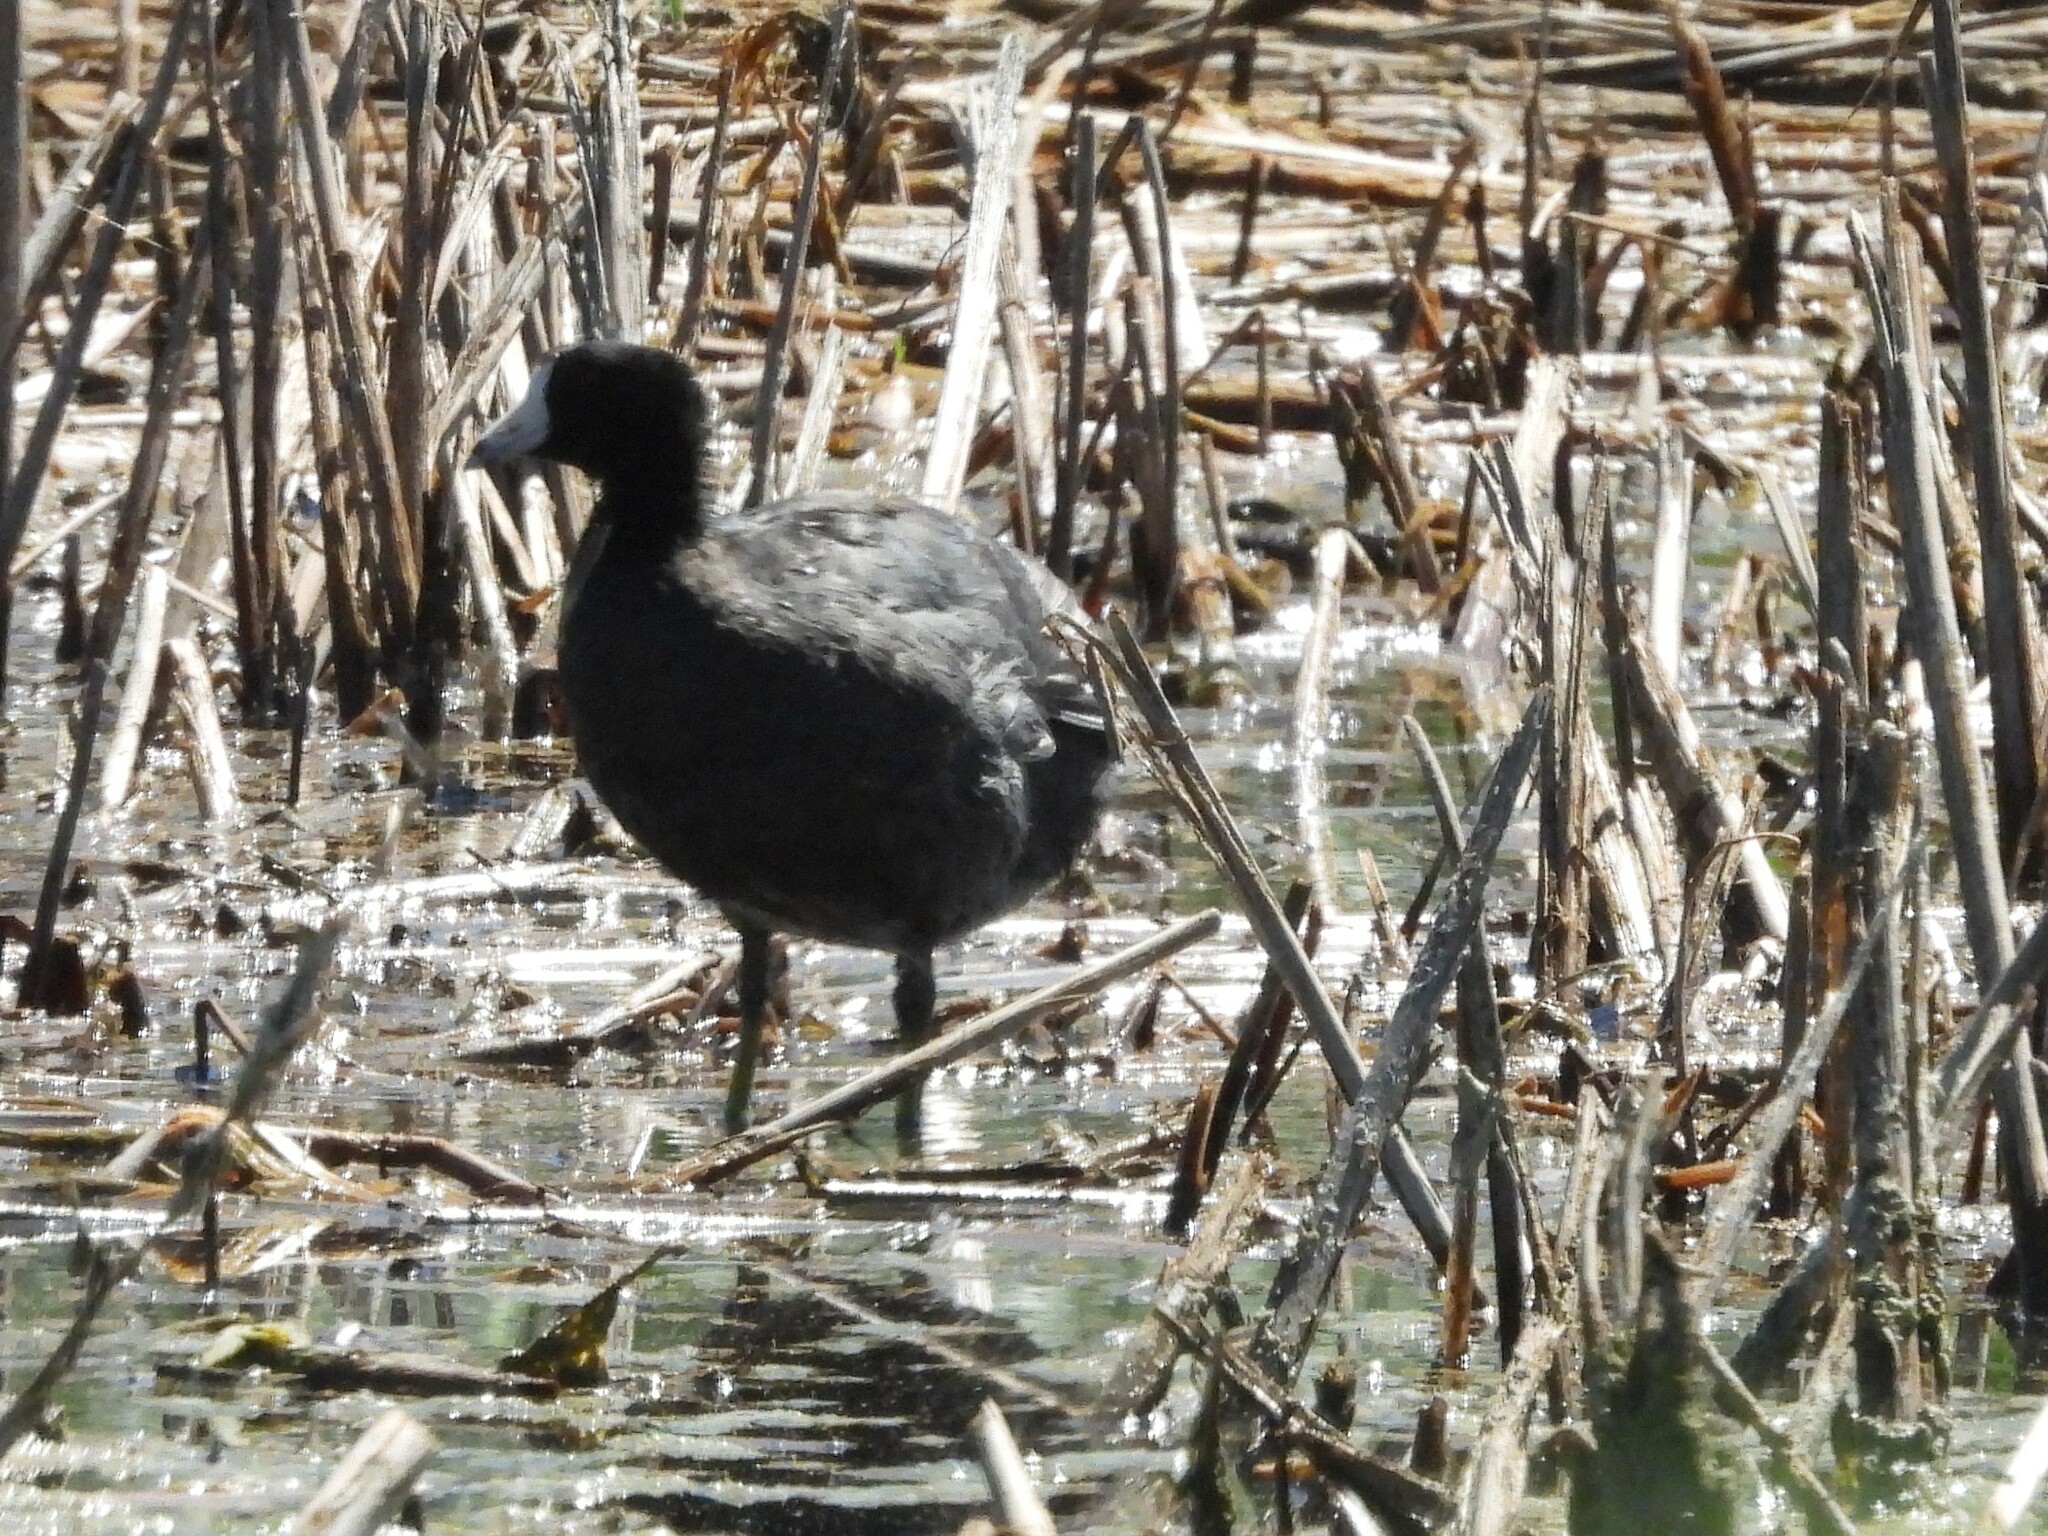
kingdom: Animalia
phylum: Chordata
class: Aves
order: Gruiformes
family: Rallidae
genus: Fulica
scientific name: Fulica americana
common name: American coot
